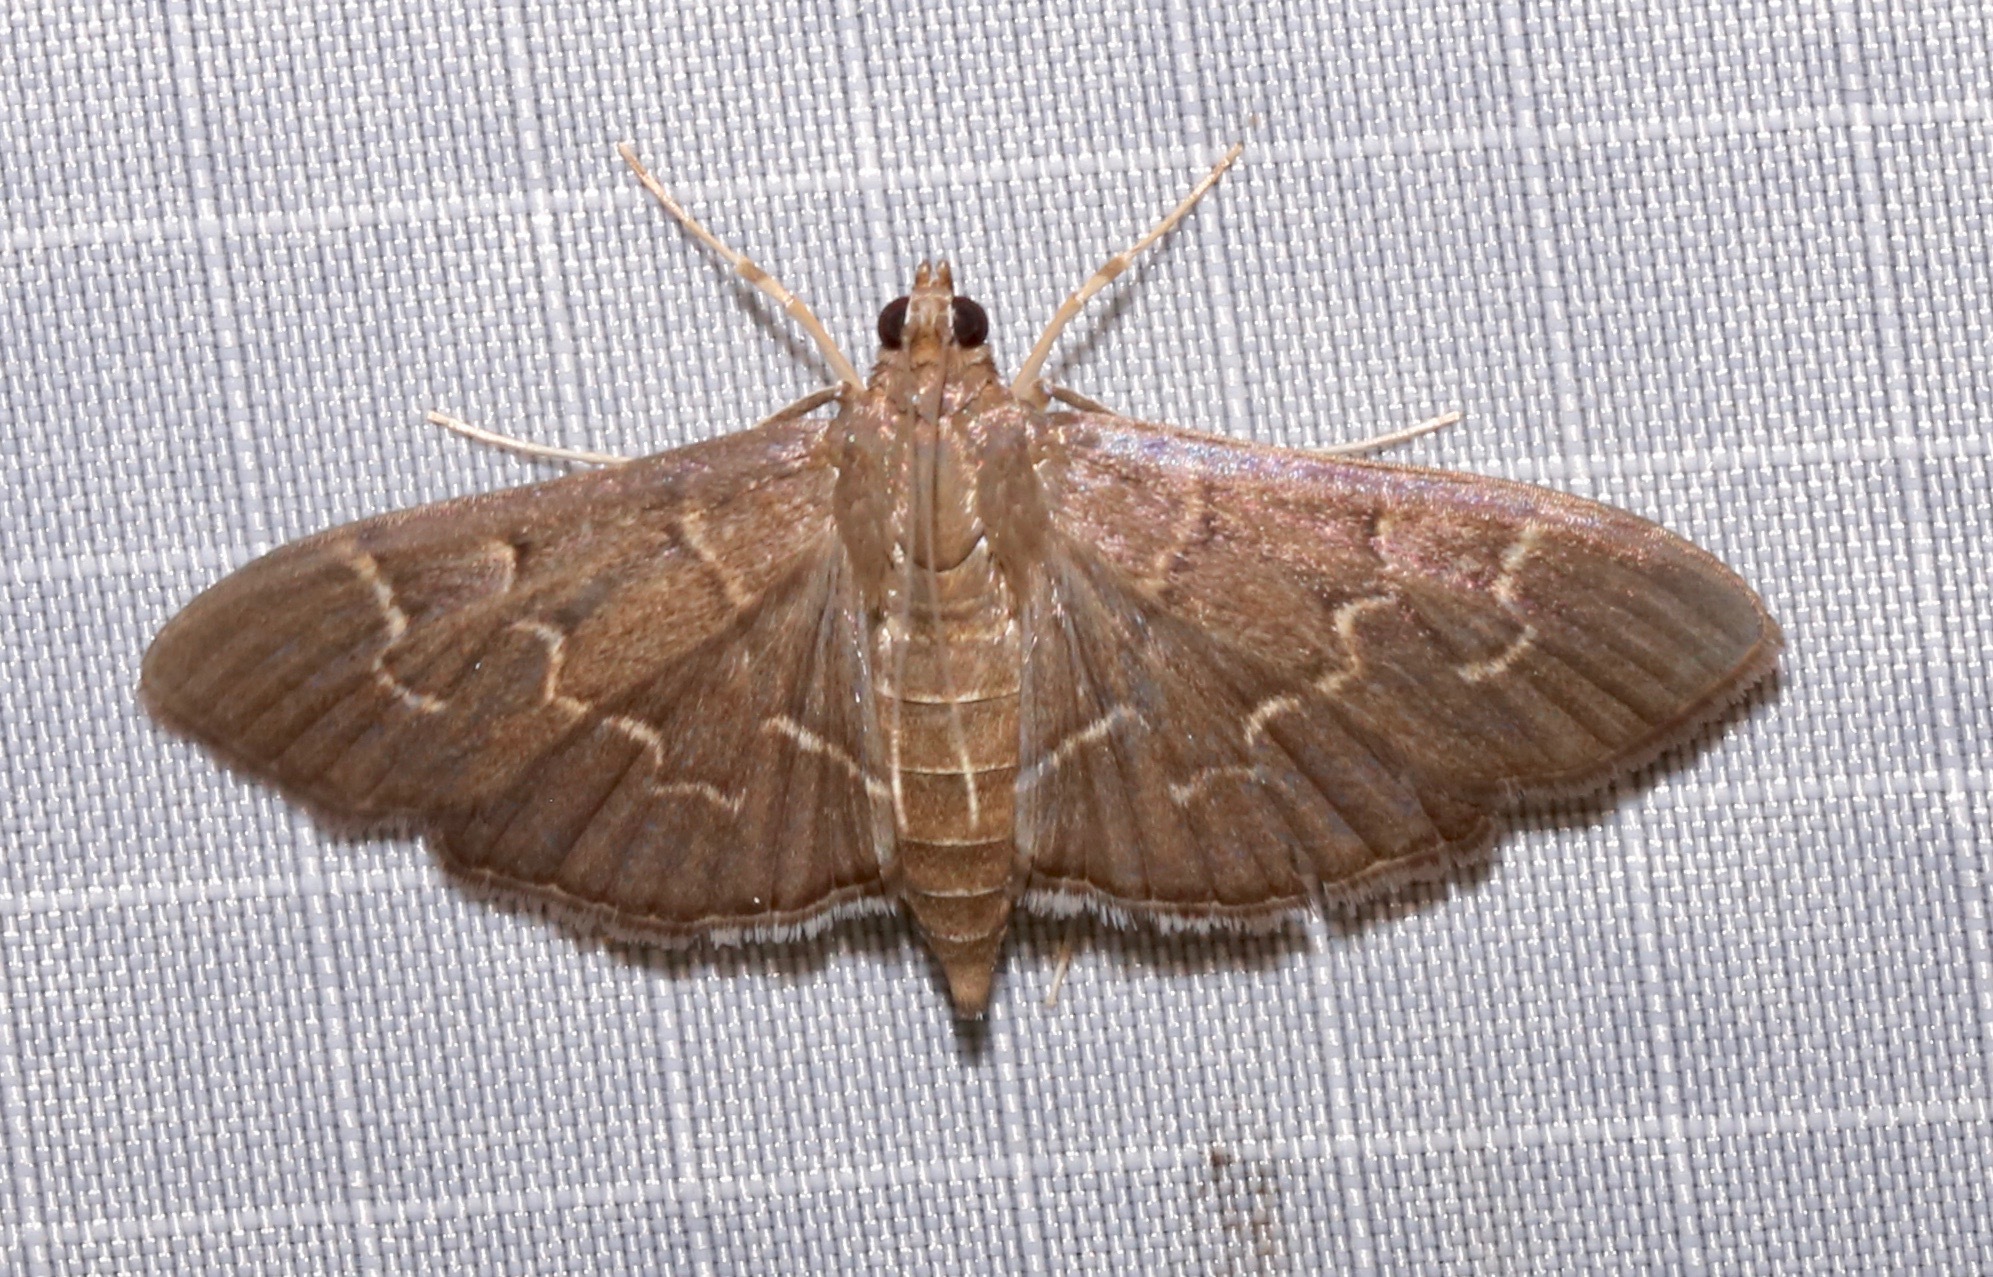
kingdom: Animalia
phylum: Arthropoda
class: Insecta
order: Lepidoptera
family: Crambidae
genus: Pilocrocis
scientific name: Pilocrocis ramentalis
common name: Scraped pilocrocis
